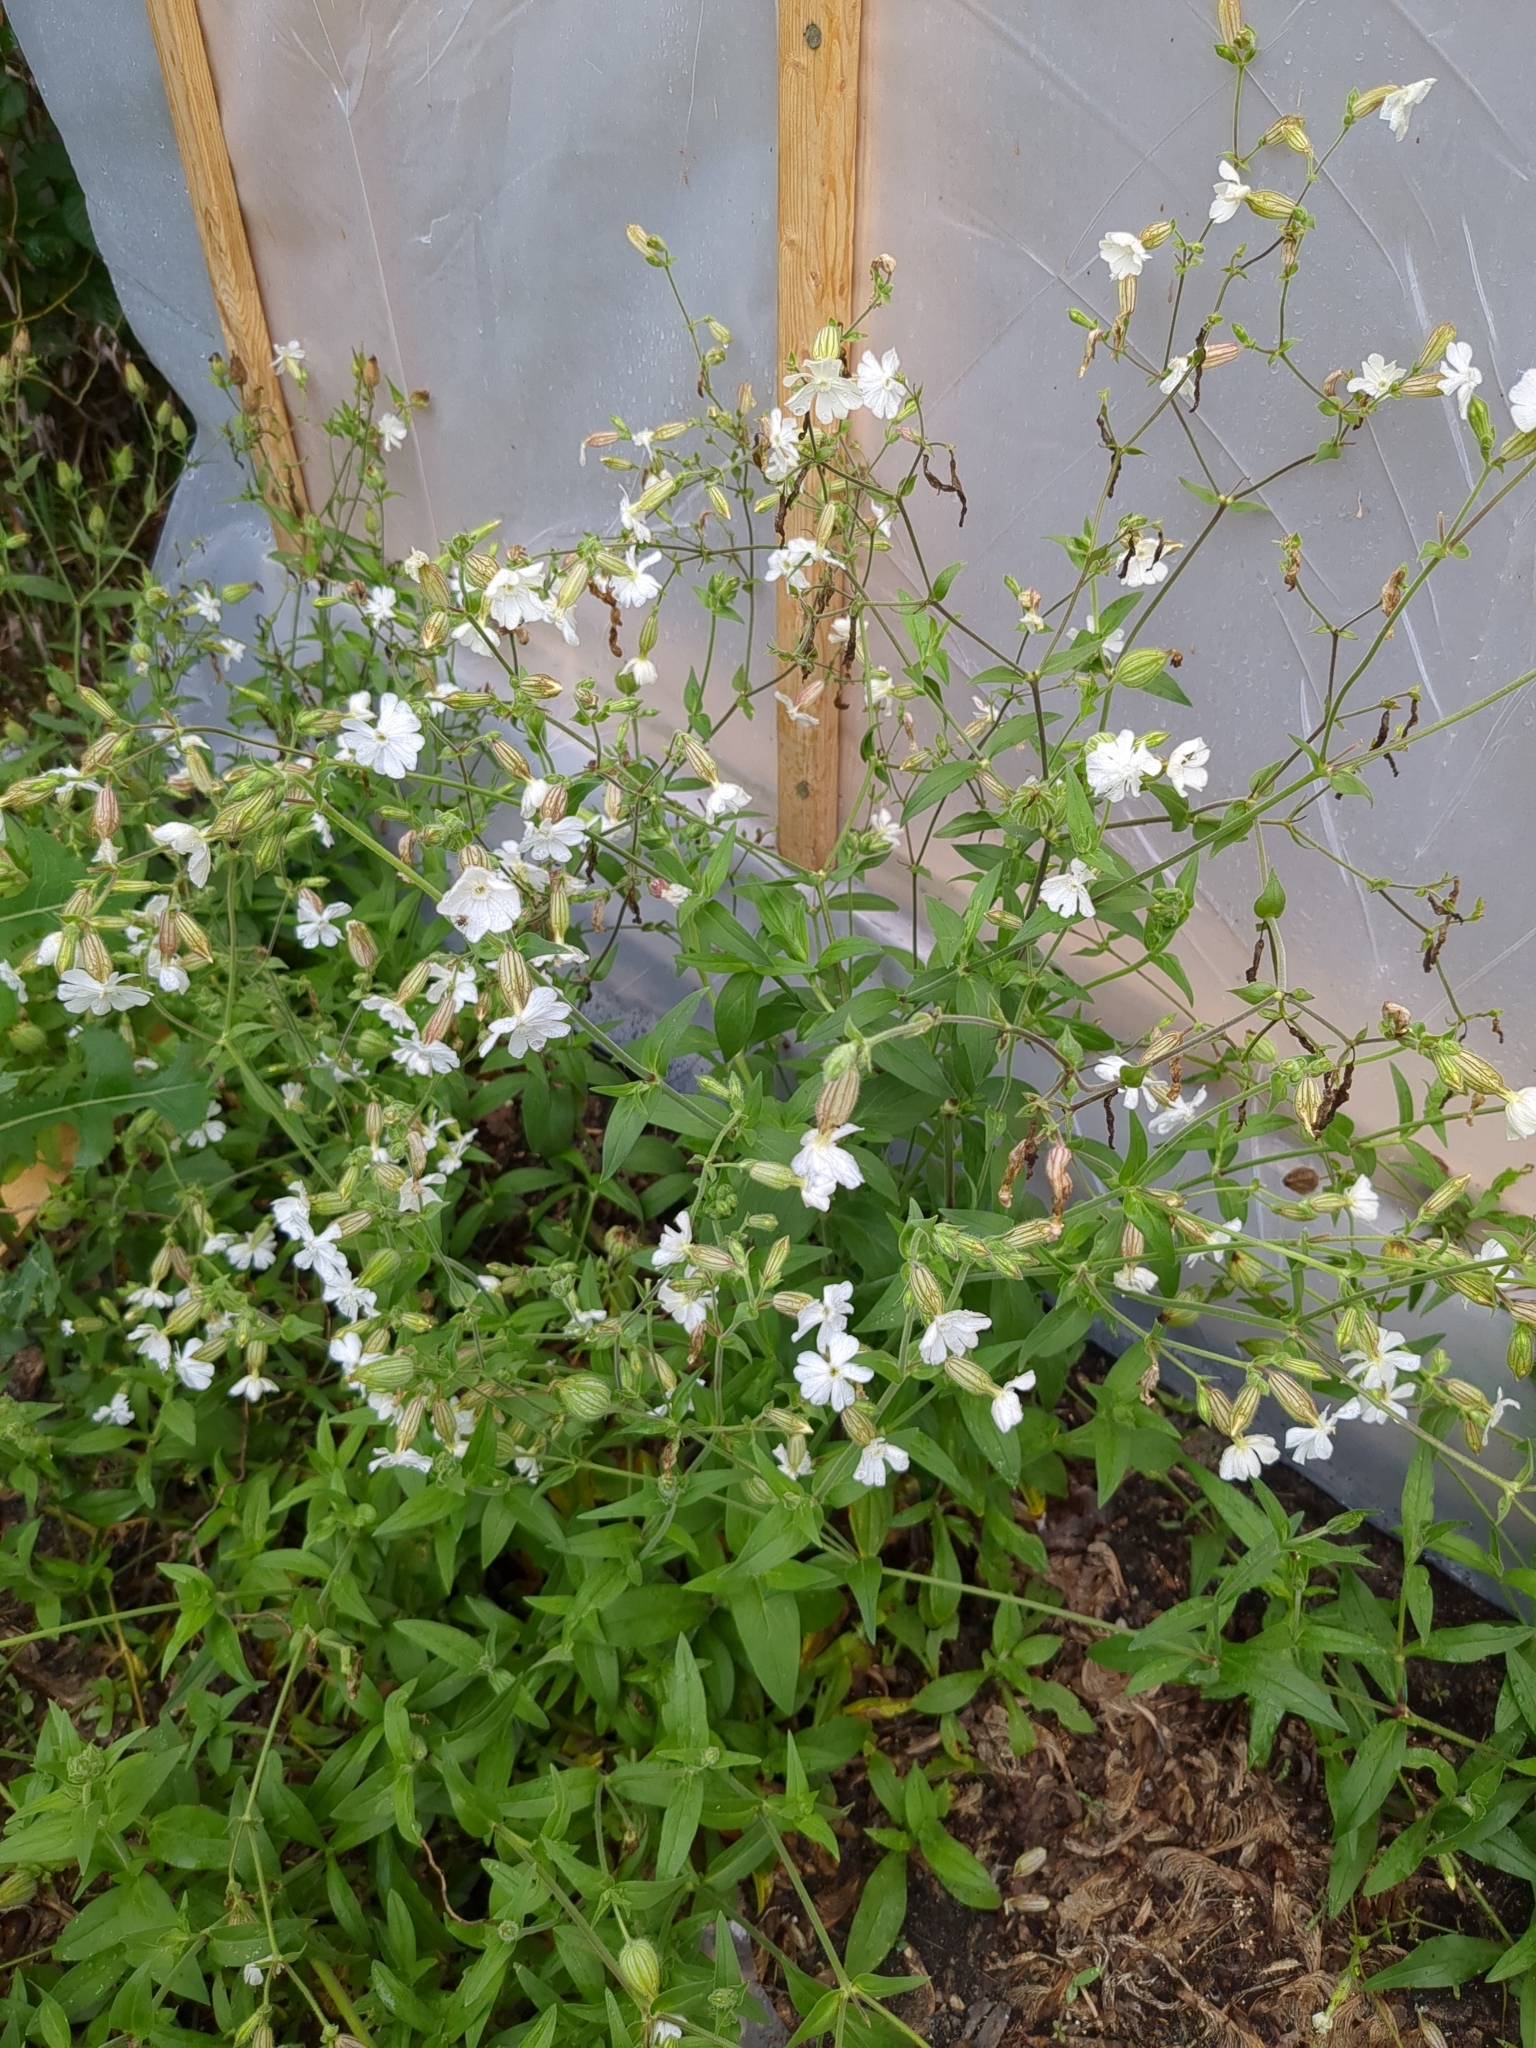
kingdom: Plantae
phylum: Tracheophyta
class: Magnoliopsida
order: Caryophyllales
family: Caryophyllaceae
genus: Silene
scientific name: Silene latifolia
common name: White campion
